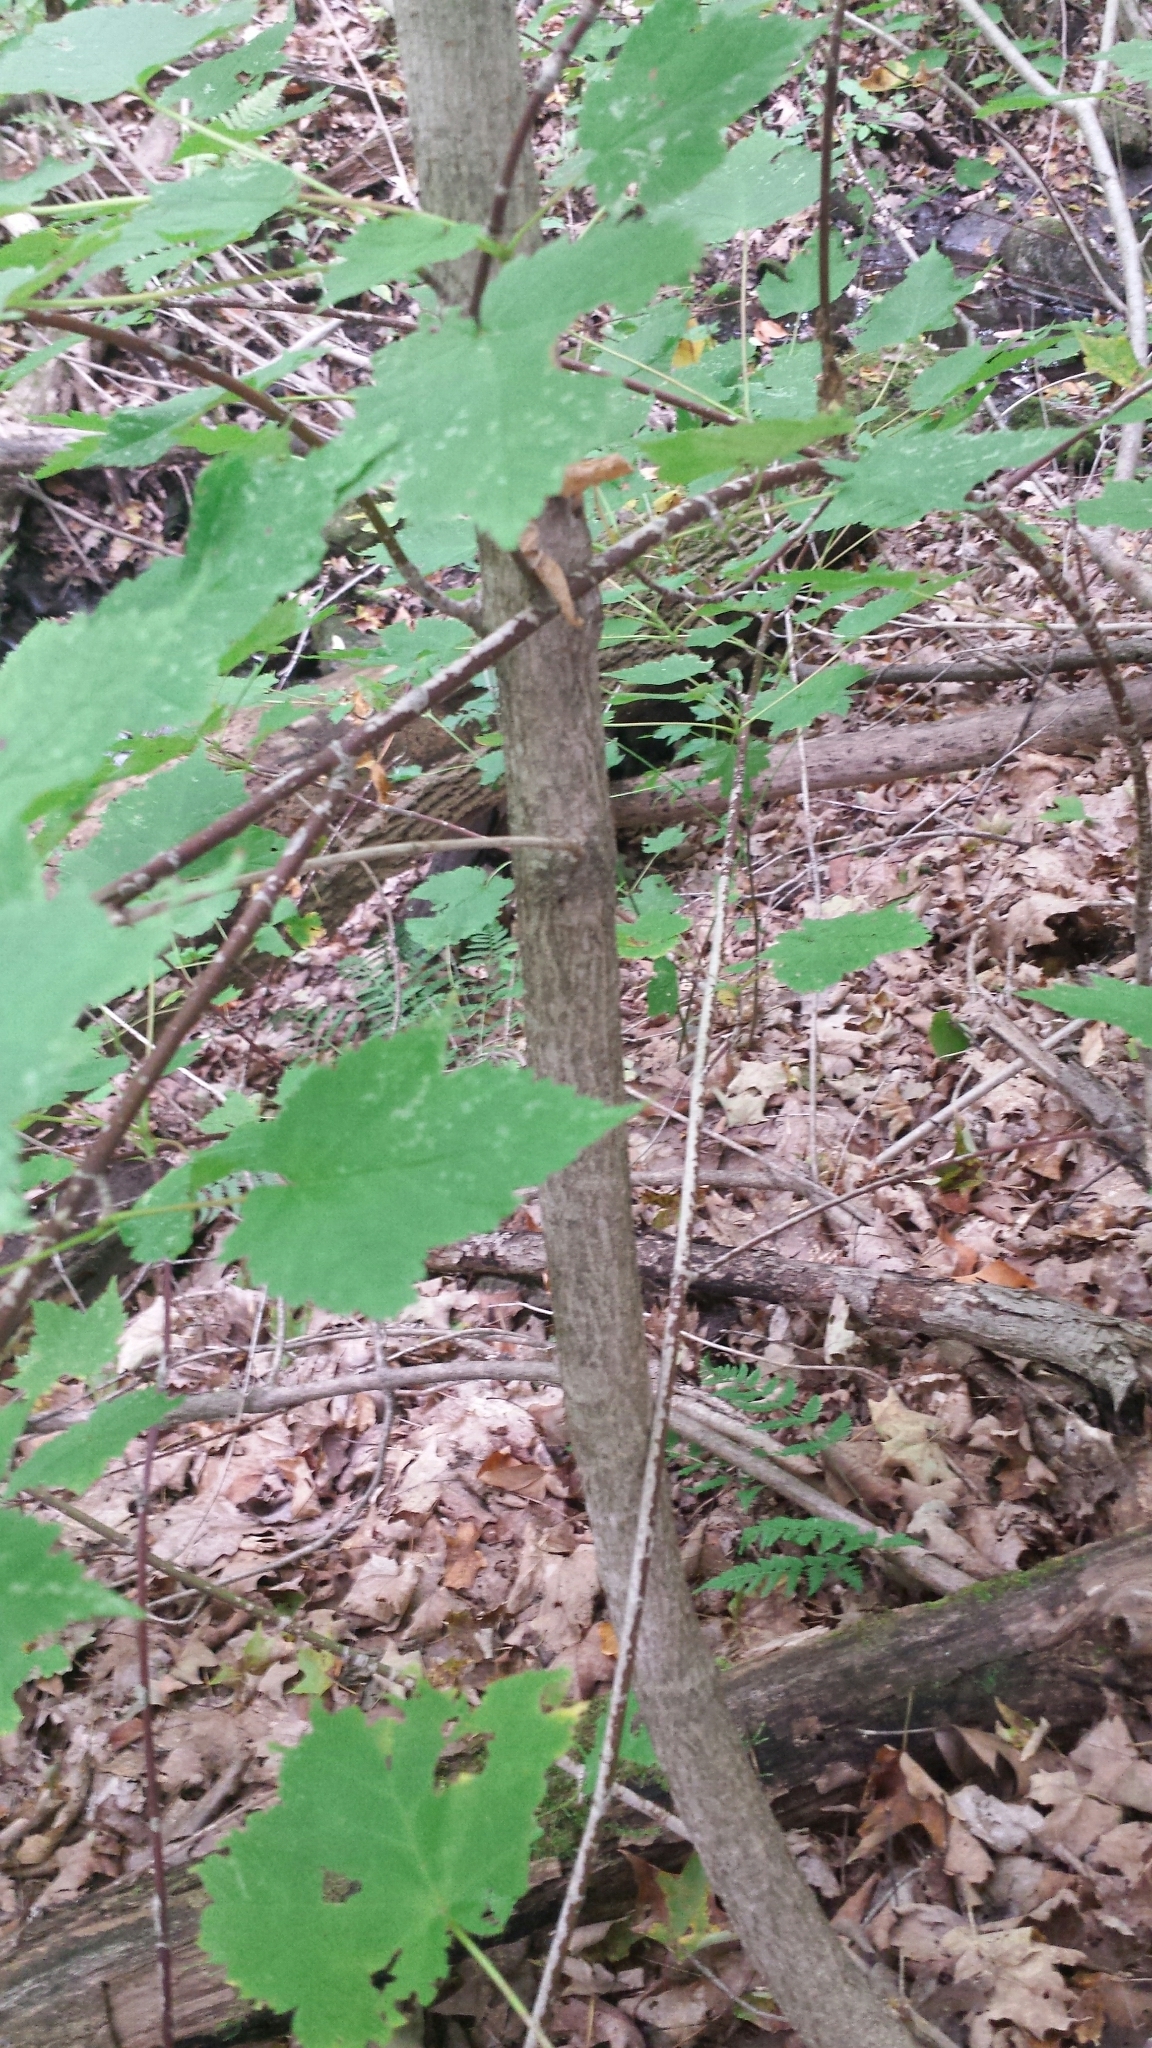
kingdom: Plantae
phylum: Tracheophyta
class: Magnoliopsida
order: Sapindales
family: Sapindaceae
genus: Acer
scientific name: Acer spicatum
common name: Mountain maple
